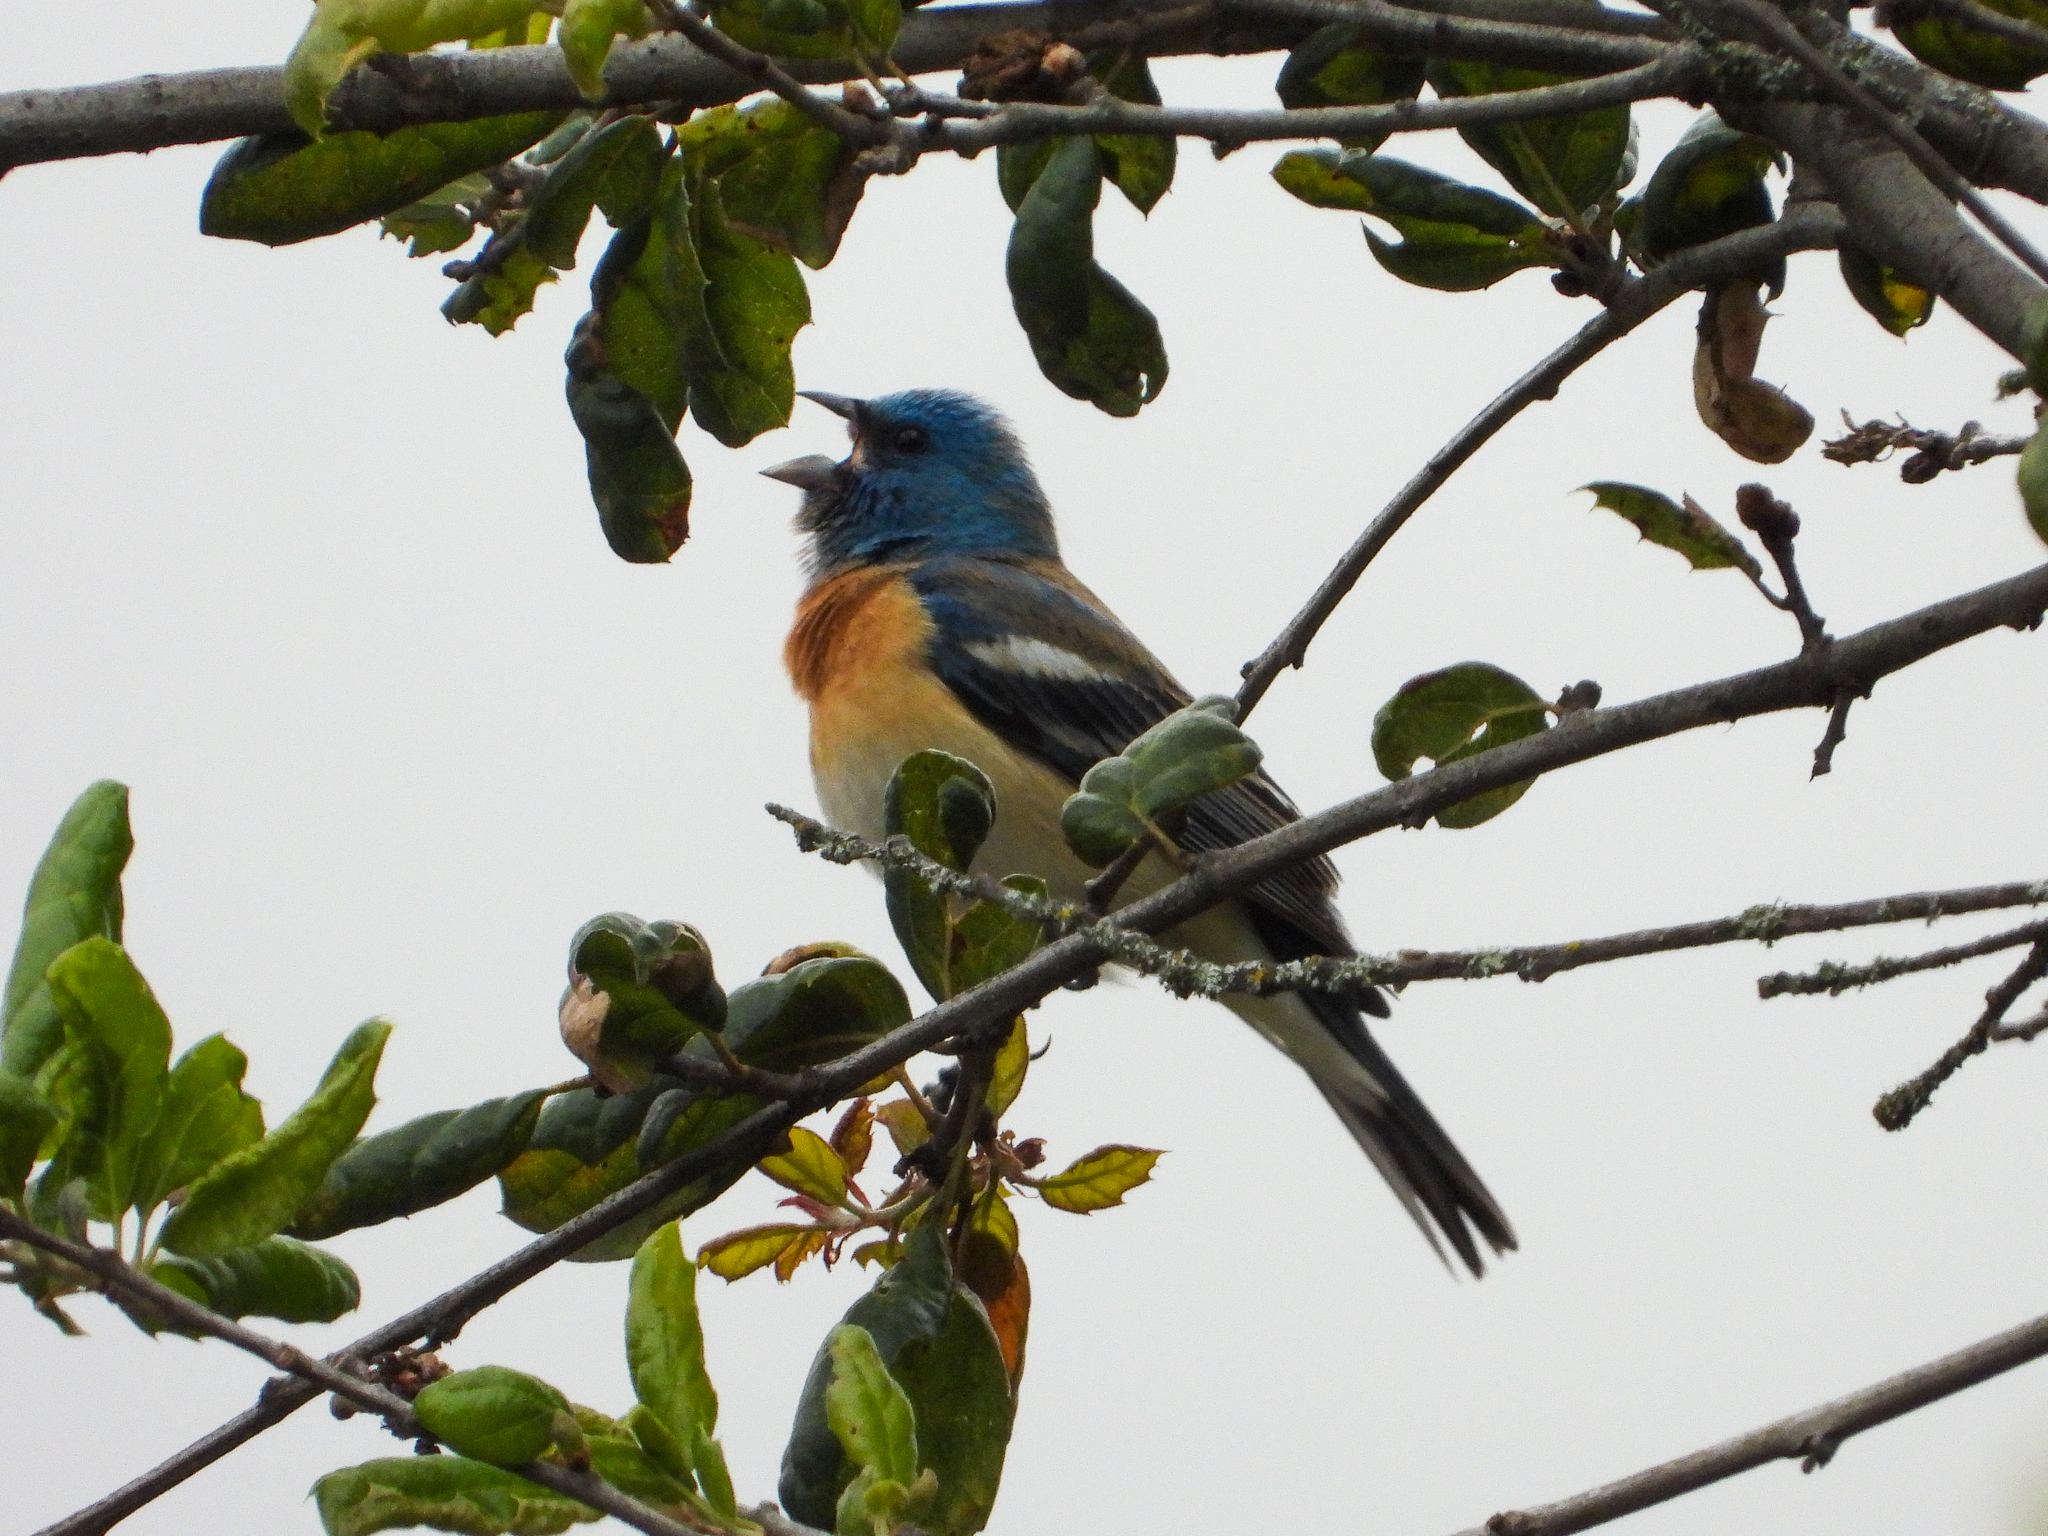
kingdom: Animalia
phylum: Chordata
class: Aves
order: Passeriformes
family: Cardinalidae
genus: Passerina
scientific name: Passerina amoena
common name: Lazuli bunting
